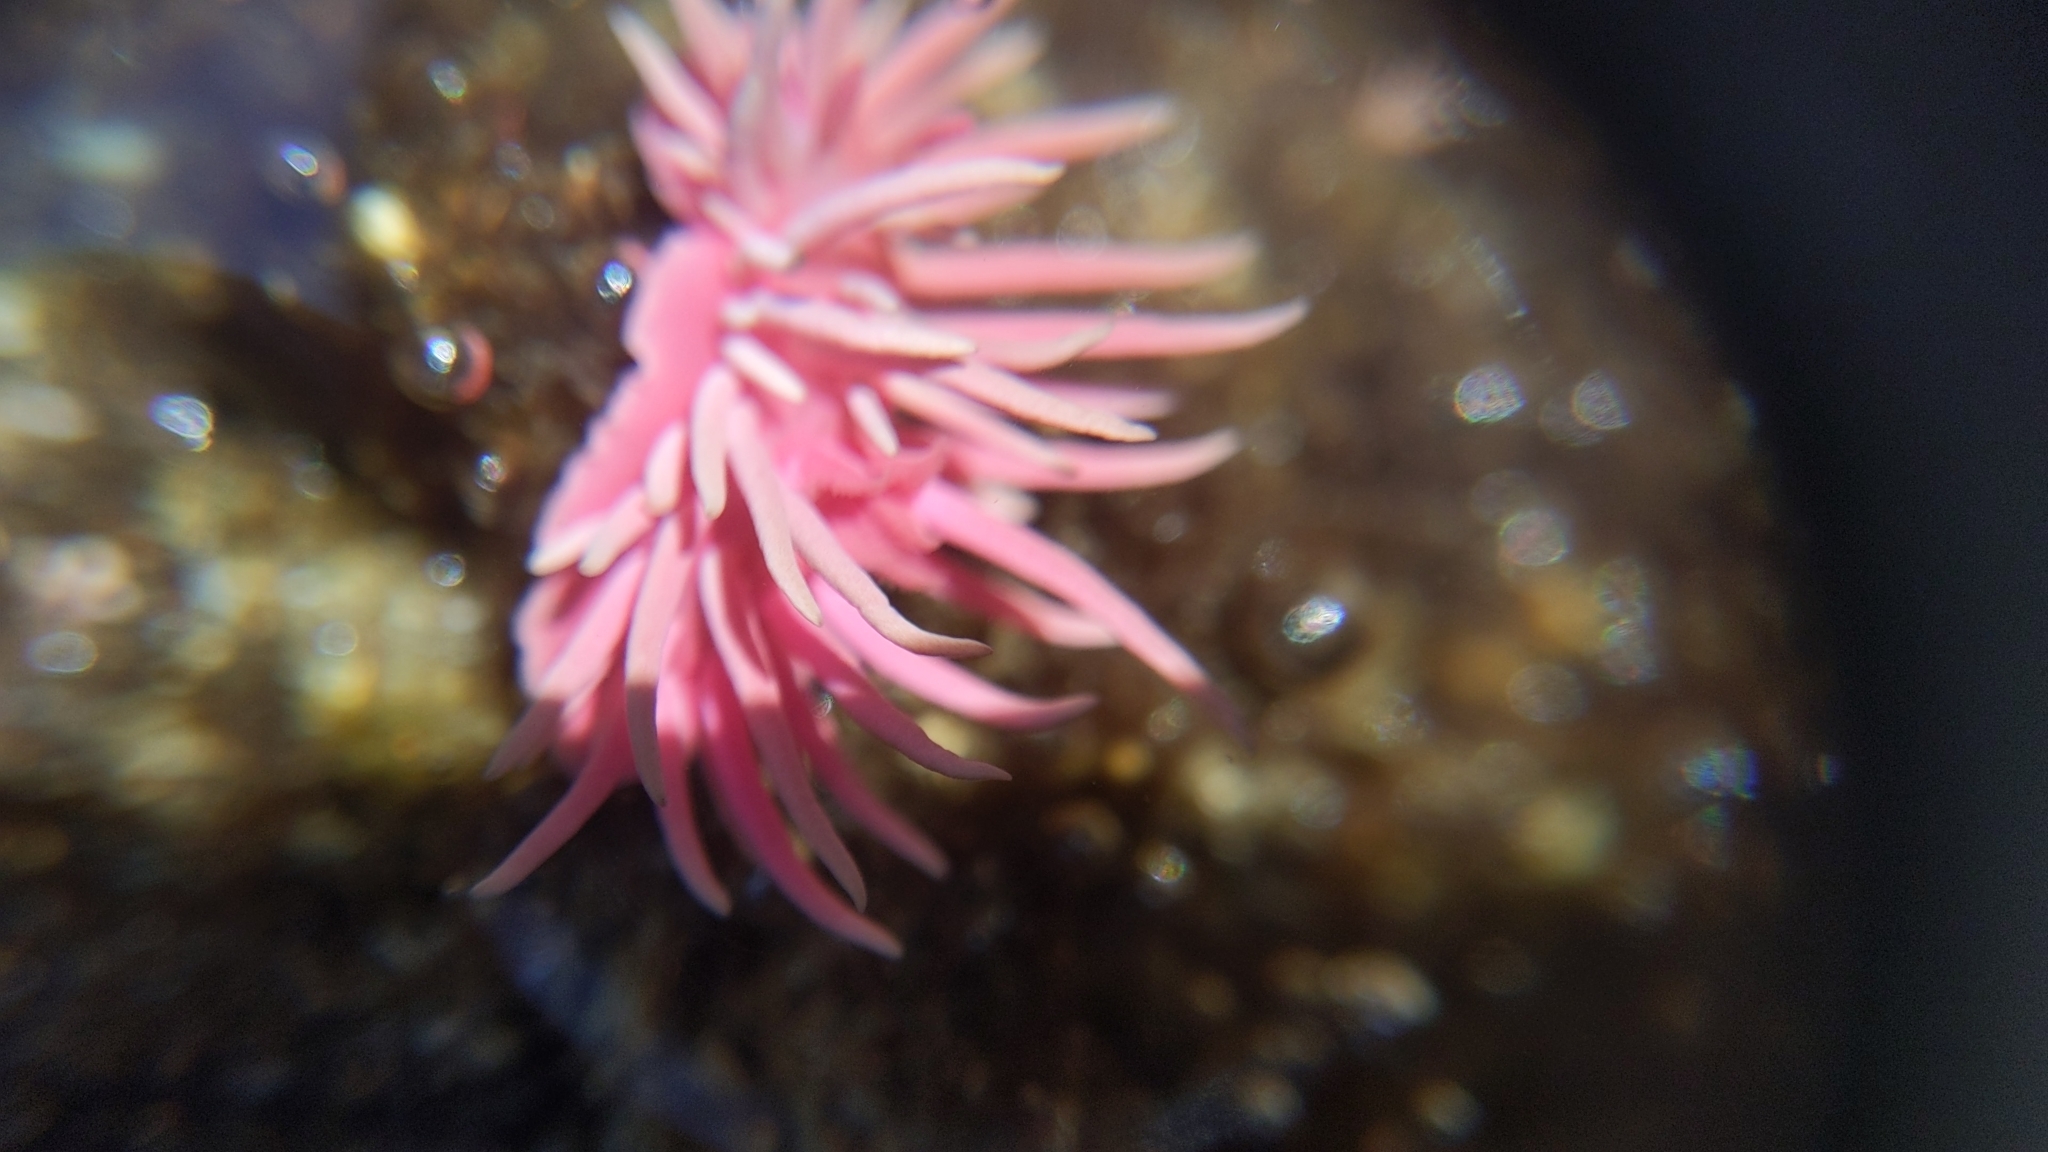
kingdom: Animalia
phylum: Mollusca
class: Gastropoda
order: Nudibranchia
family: Goniodorididae
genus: Okenia
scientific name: Okenia
